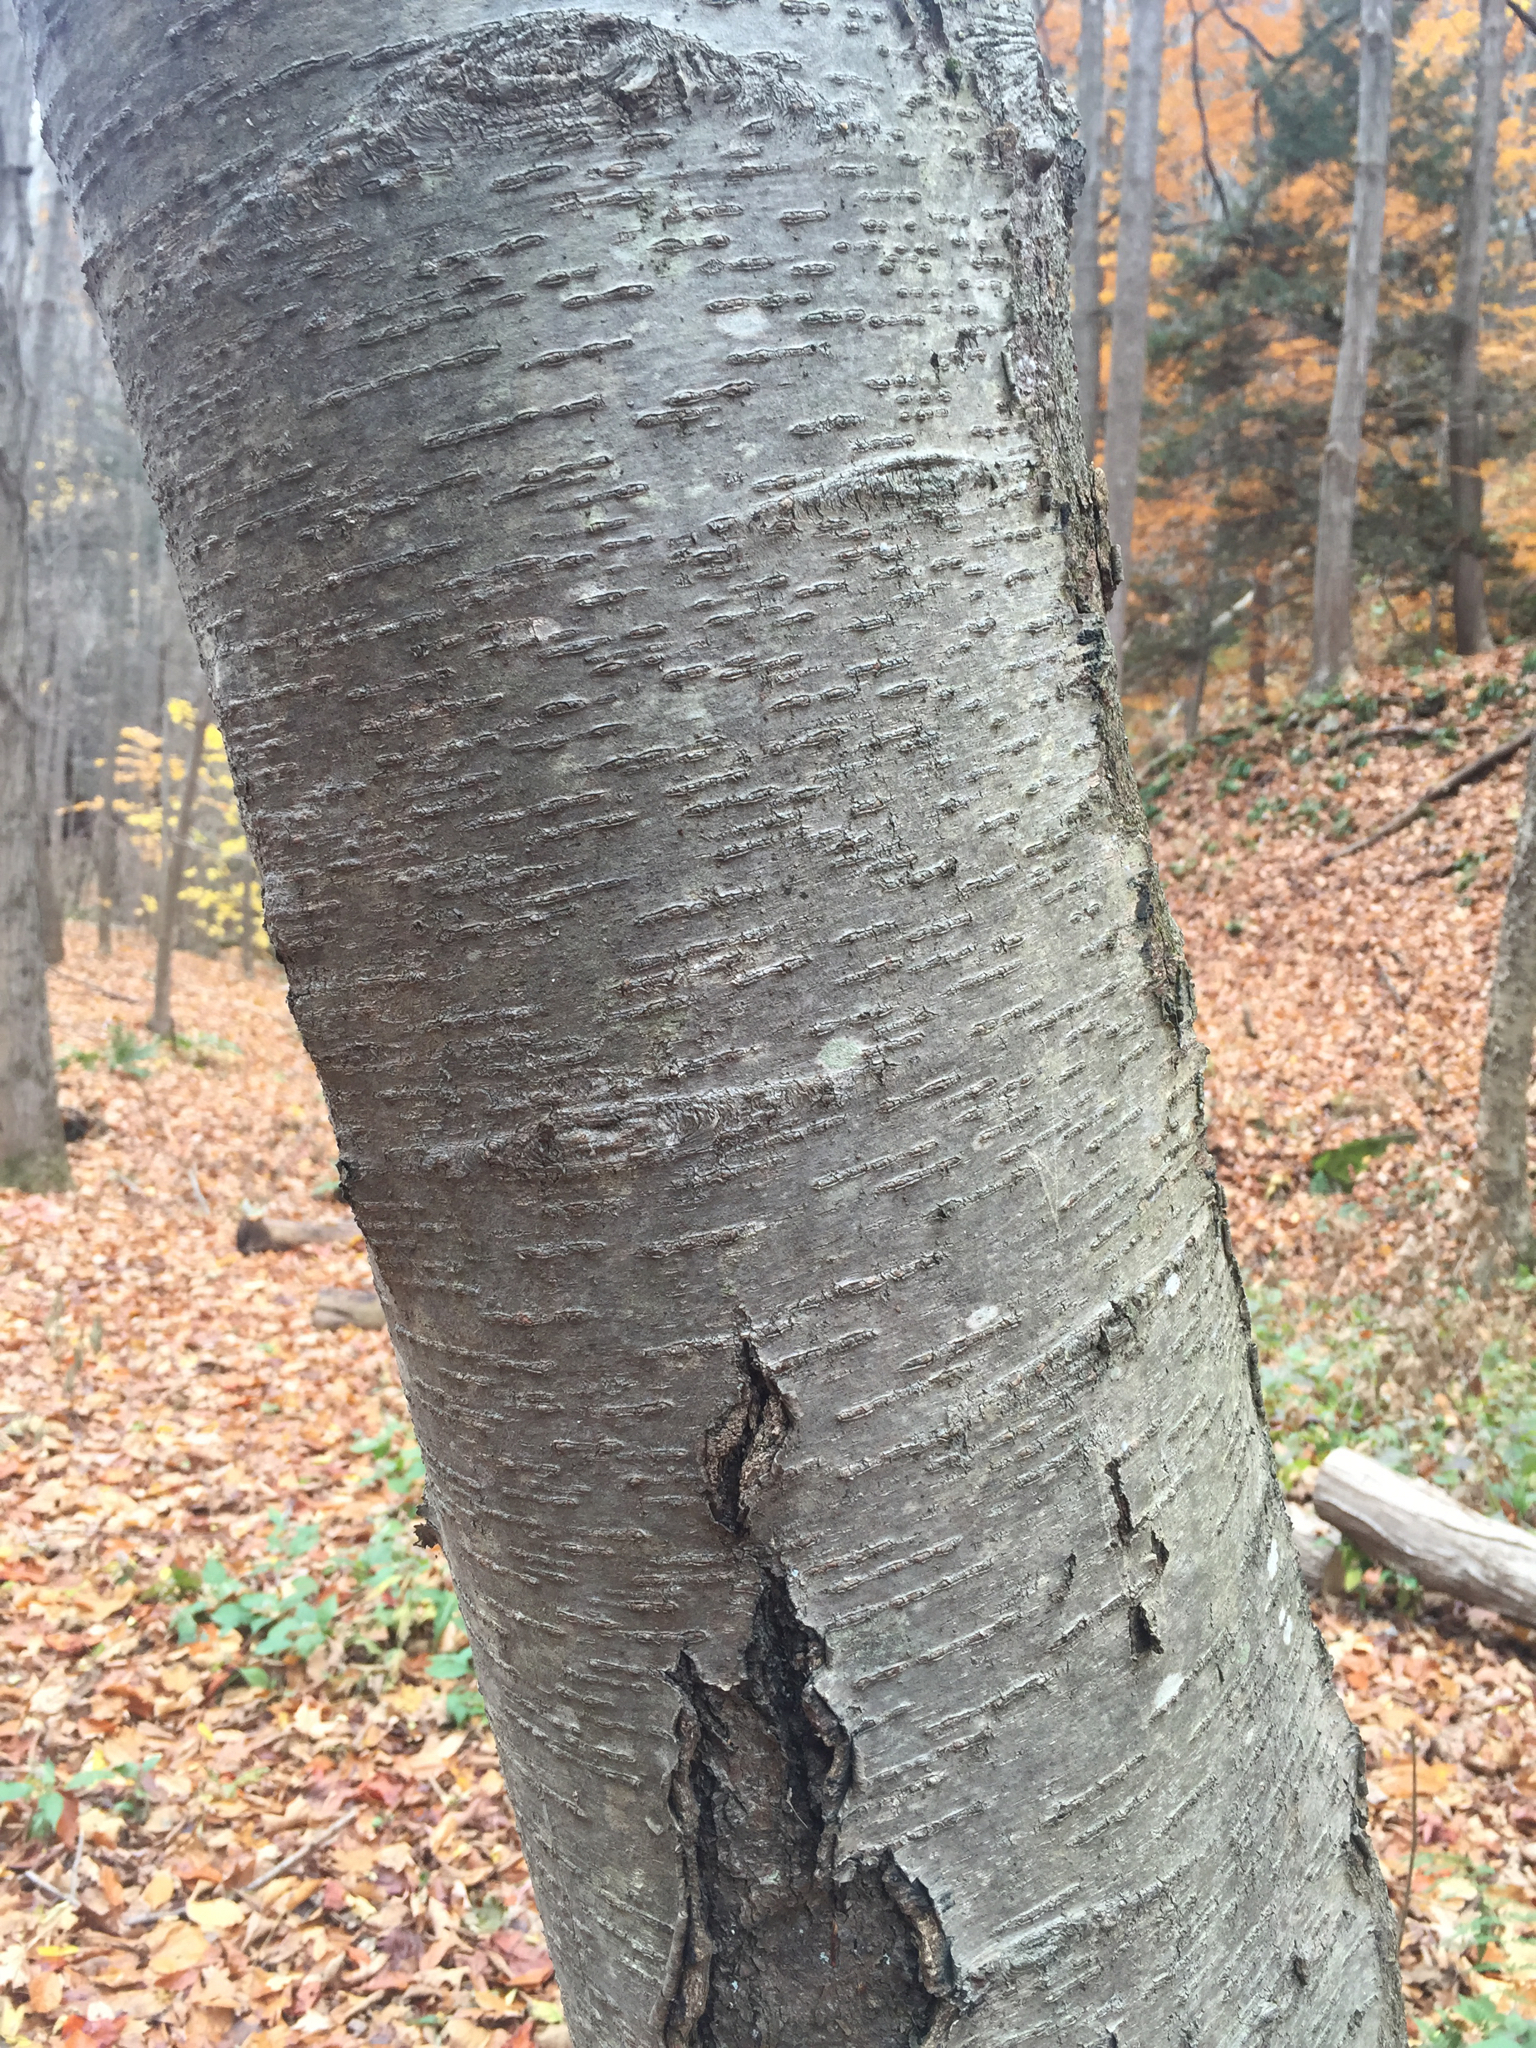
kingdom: Plantae
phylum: Tracheophyta
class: Magnoliopsida
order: Fagales
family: Betulaceae
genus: Betula
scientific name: Betula lenta
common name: Black birch
